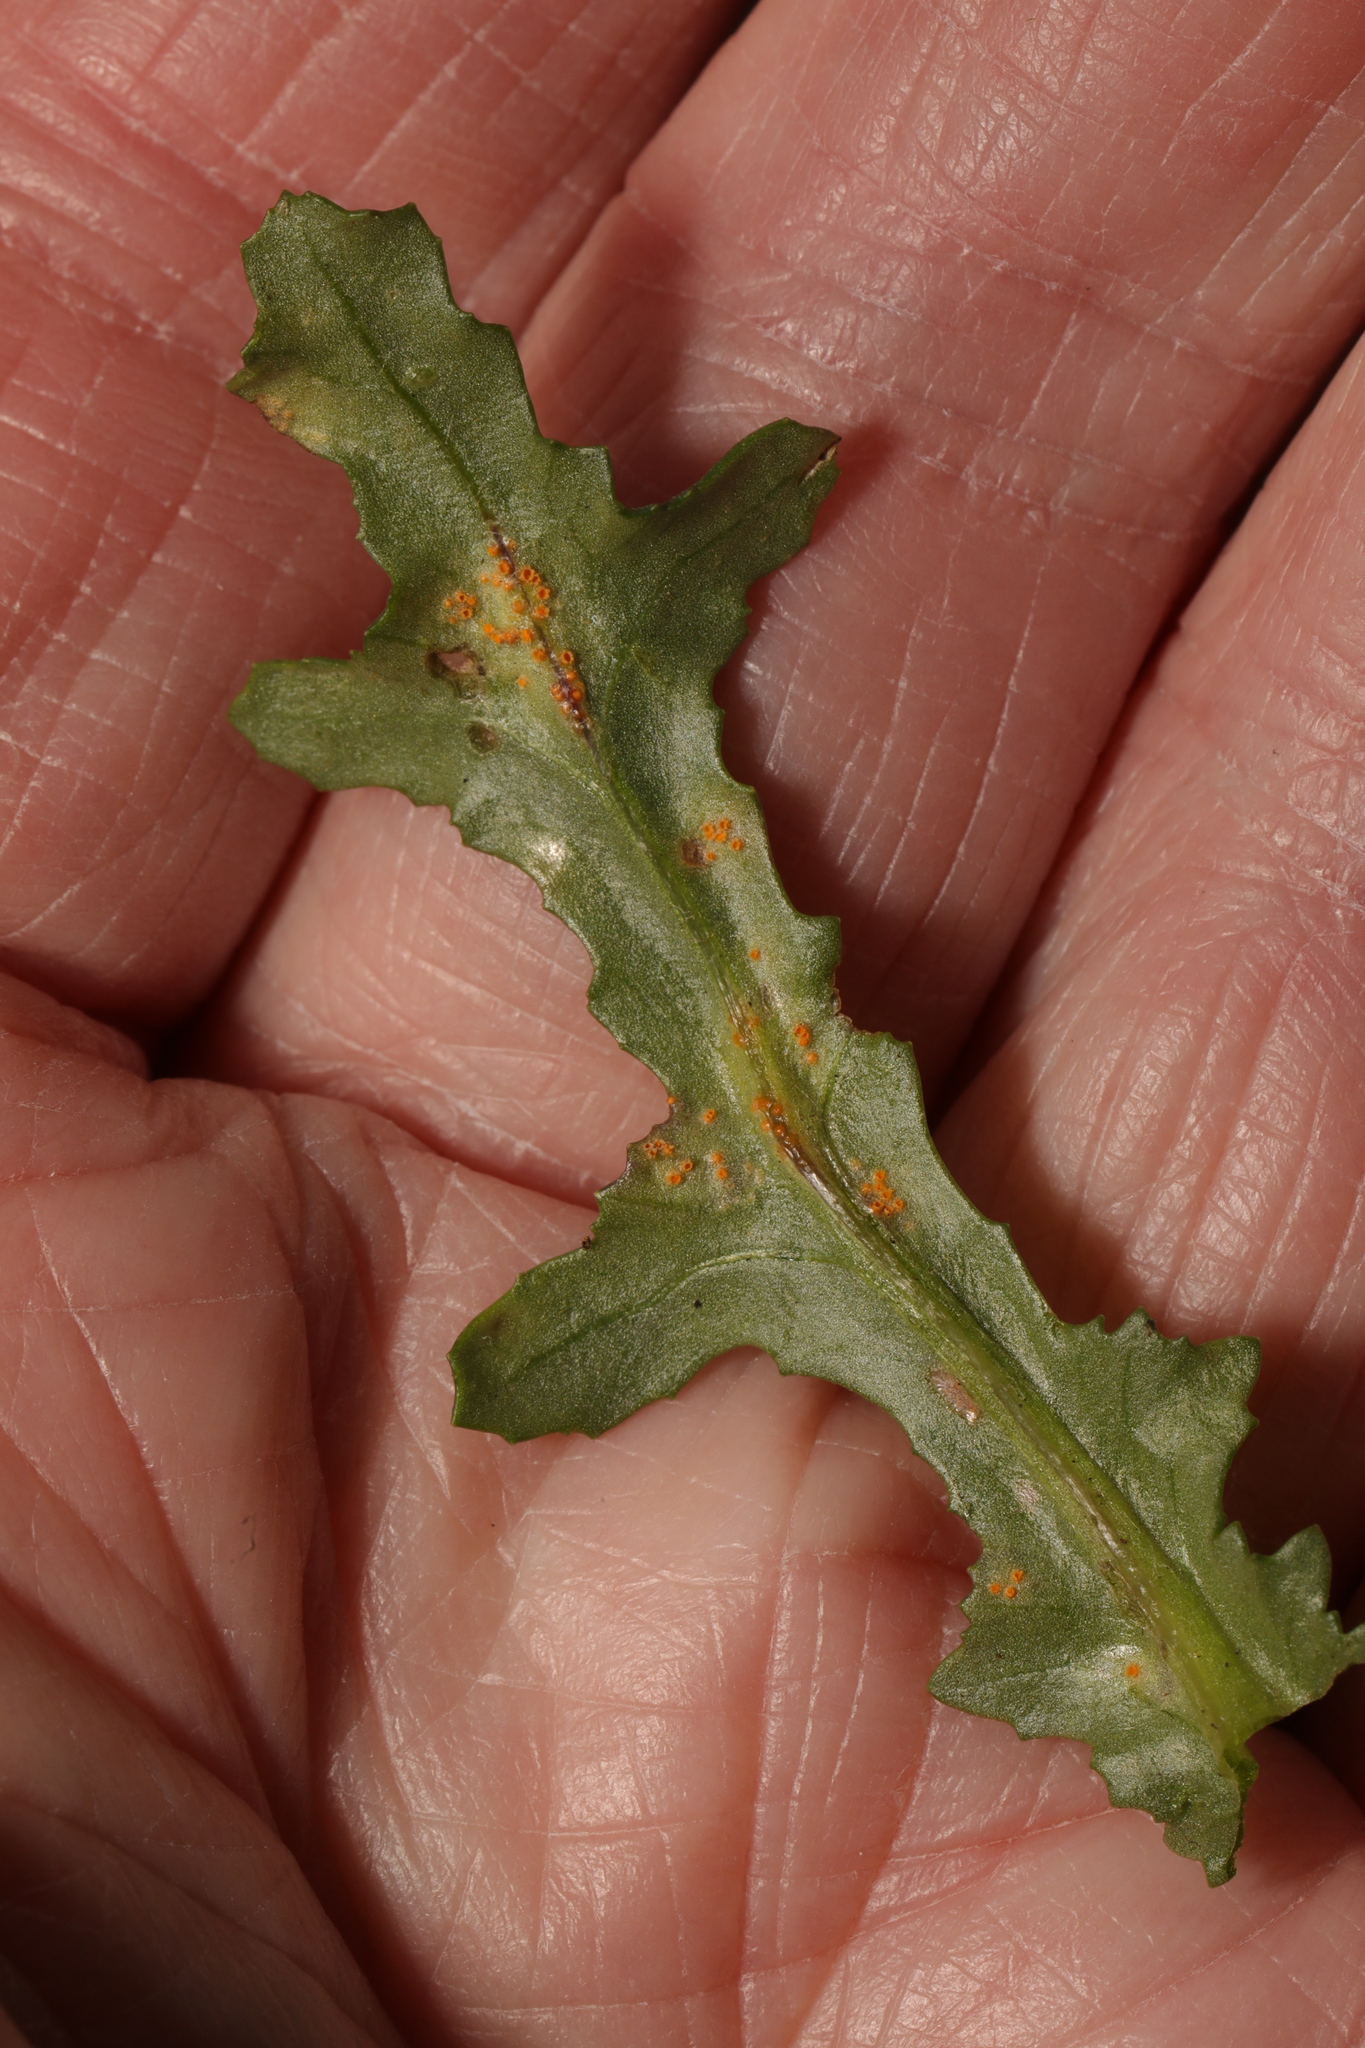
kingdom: Fungi
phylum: Basidiomycota
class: Pucciniomycetes
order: Pucciniales
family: Pucciniaceae
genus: Puccinia
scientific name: Puccinia lagenophorae
